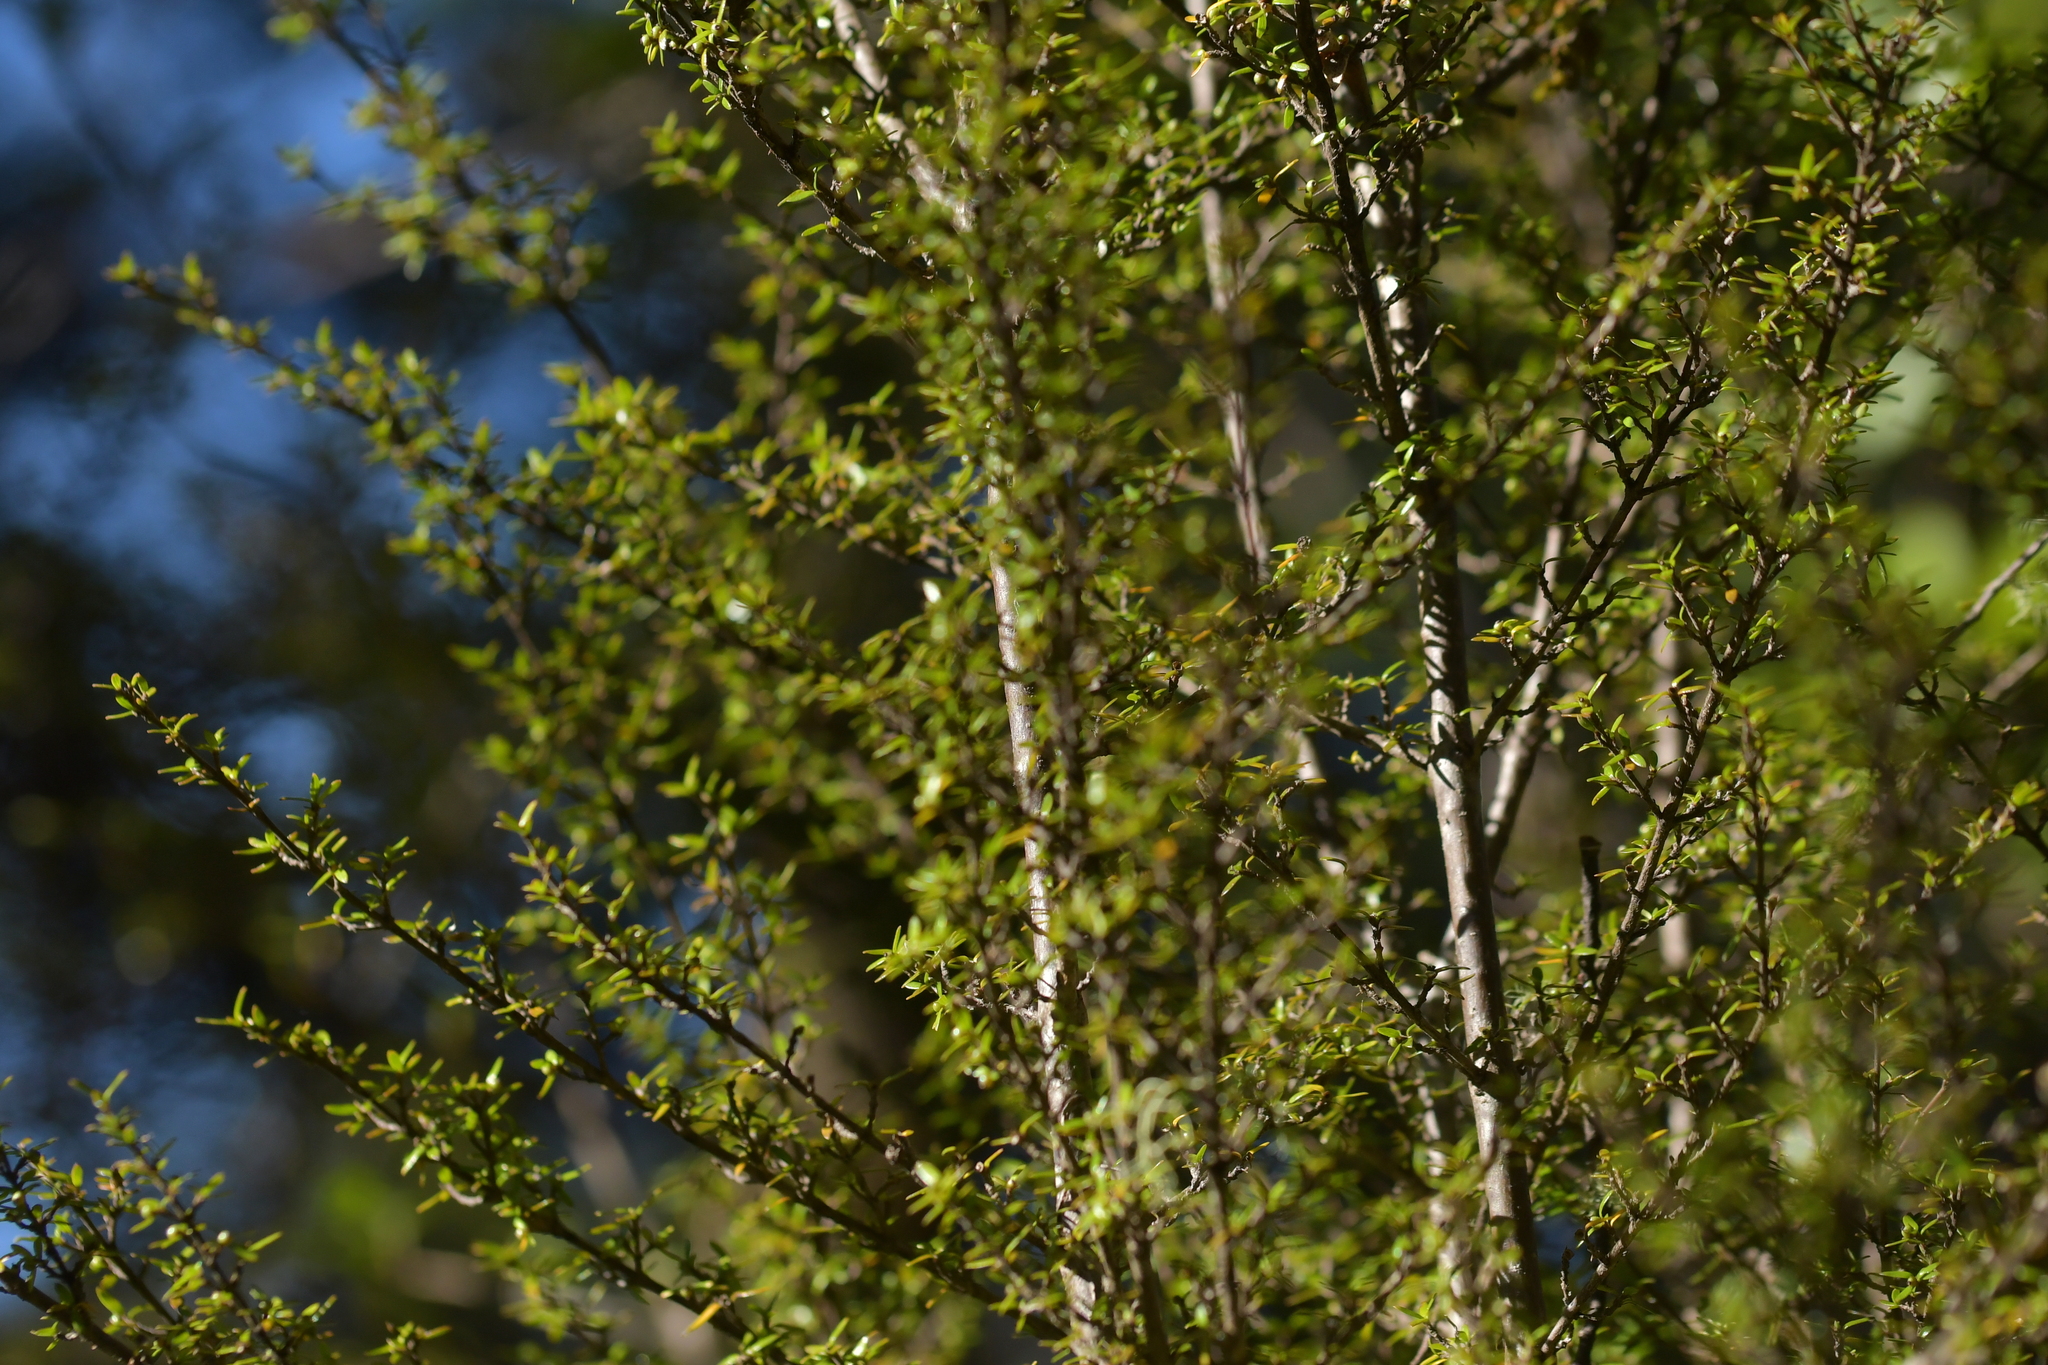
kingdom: Plantae
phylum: Tracheophyta
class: Magnoliopsida
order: Gentianales
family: Rubiaceae
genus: Coprosma
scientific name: Coprosma microcarpa
